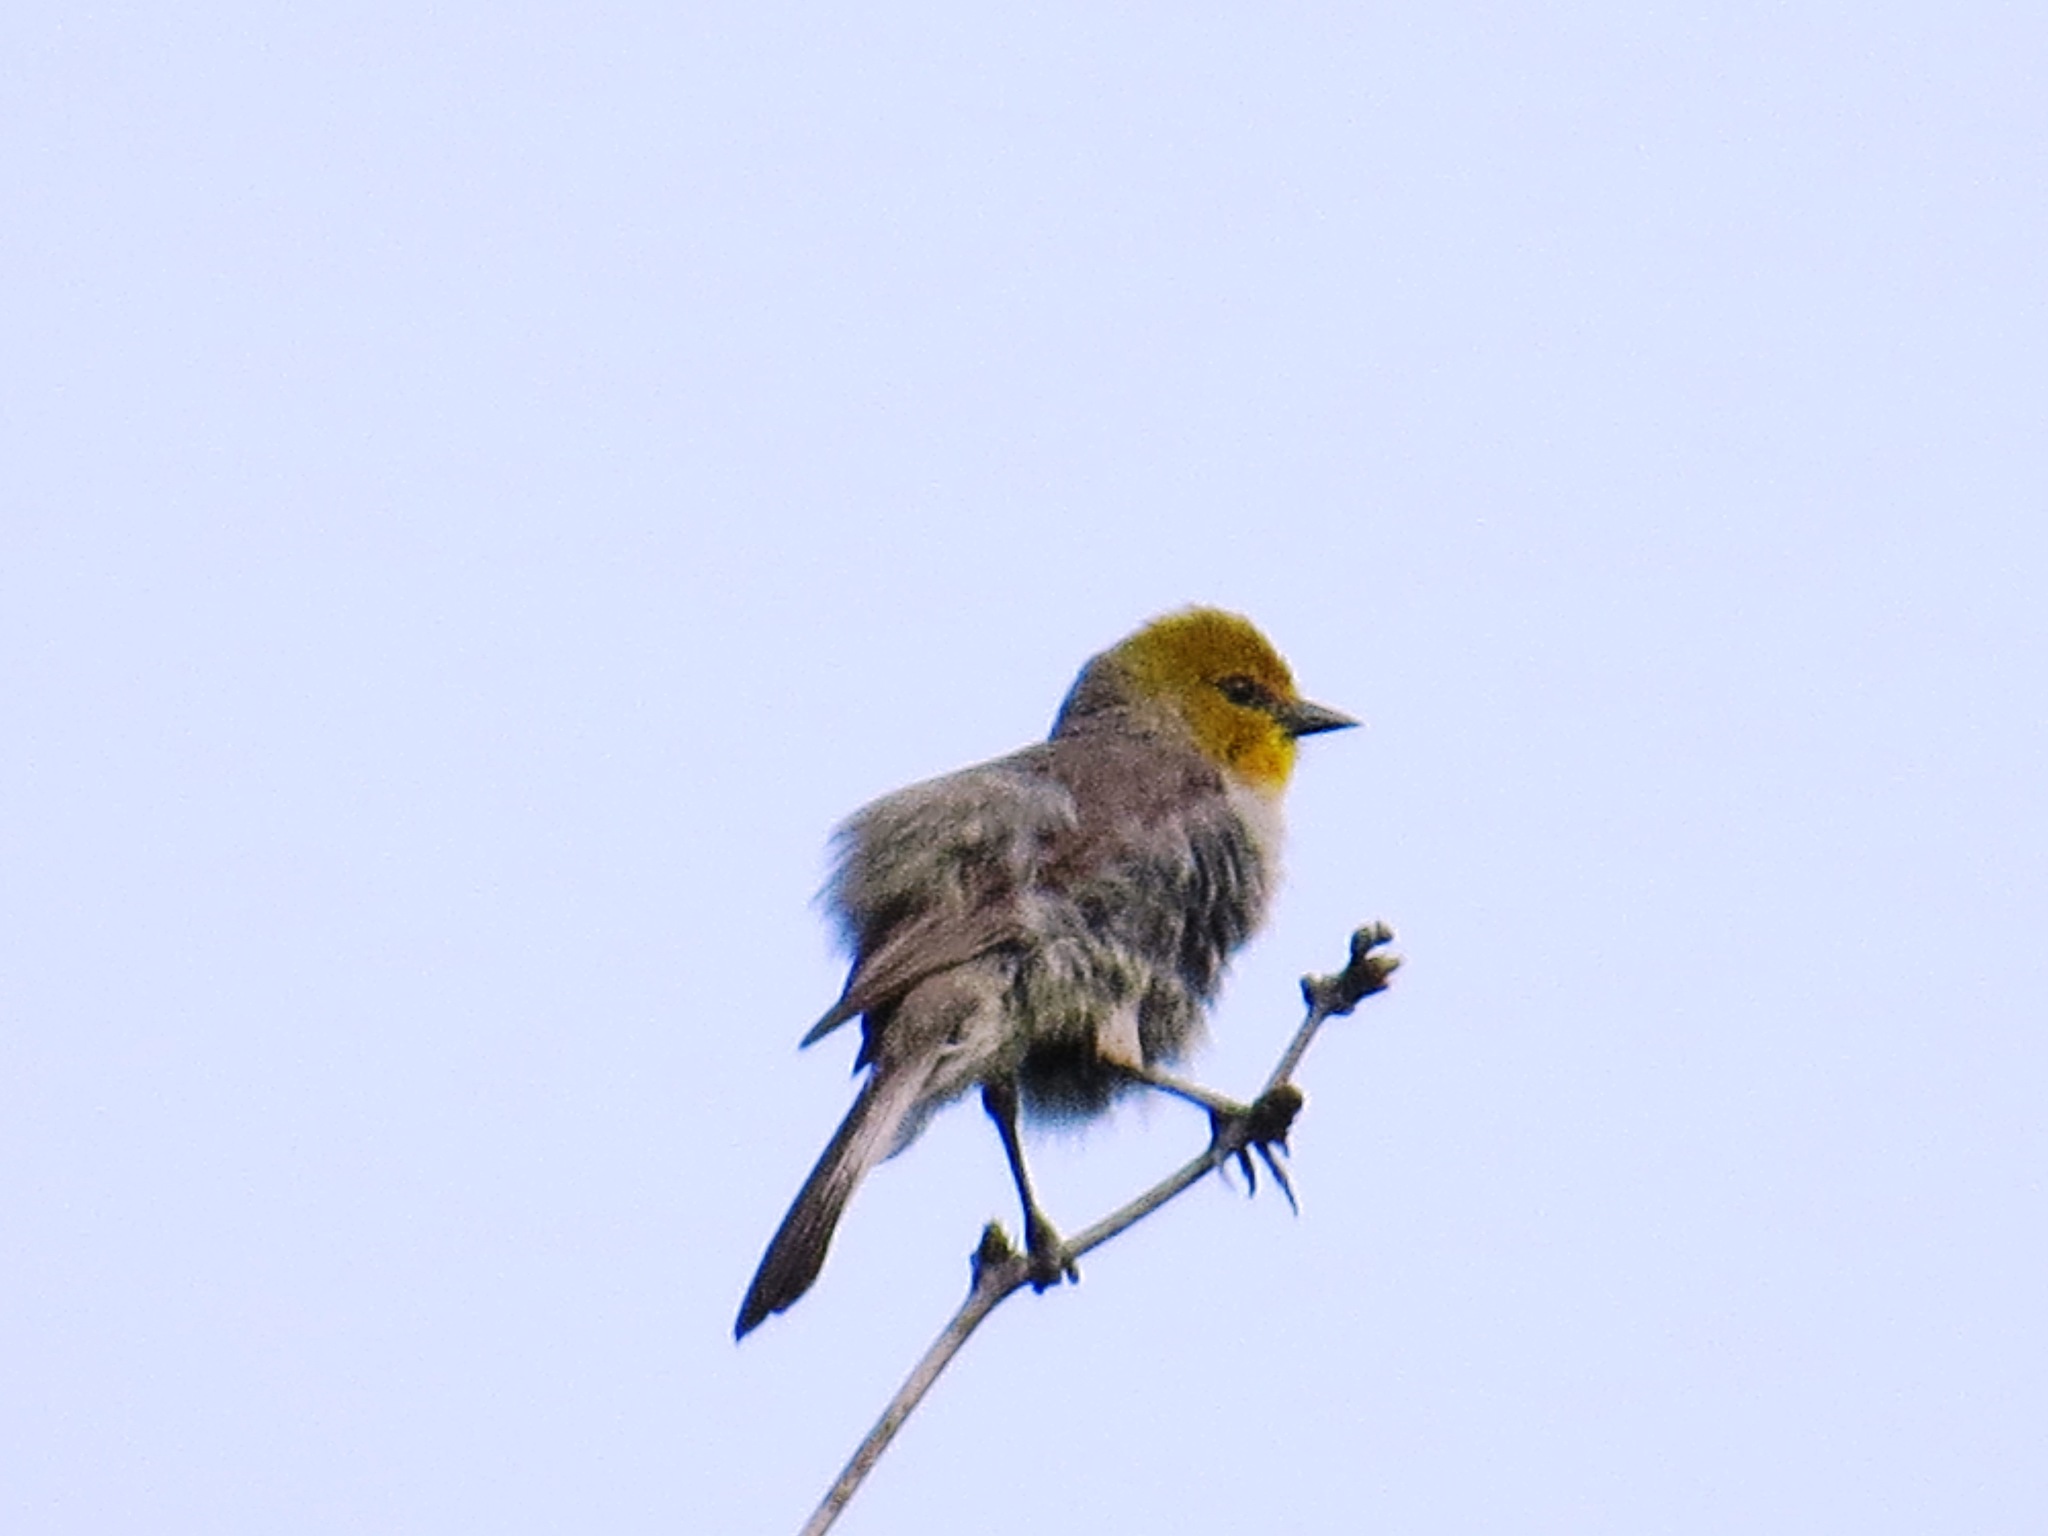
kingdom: Animalia
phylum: Chordata
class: Aves
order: Passeriformes
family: Remizidae
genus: Auriparus
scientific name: Auriparus flaviceps
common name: Verdin
